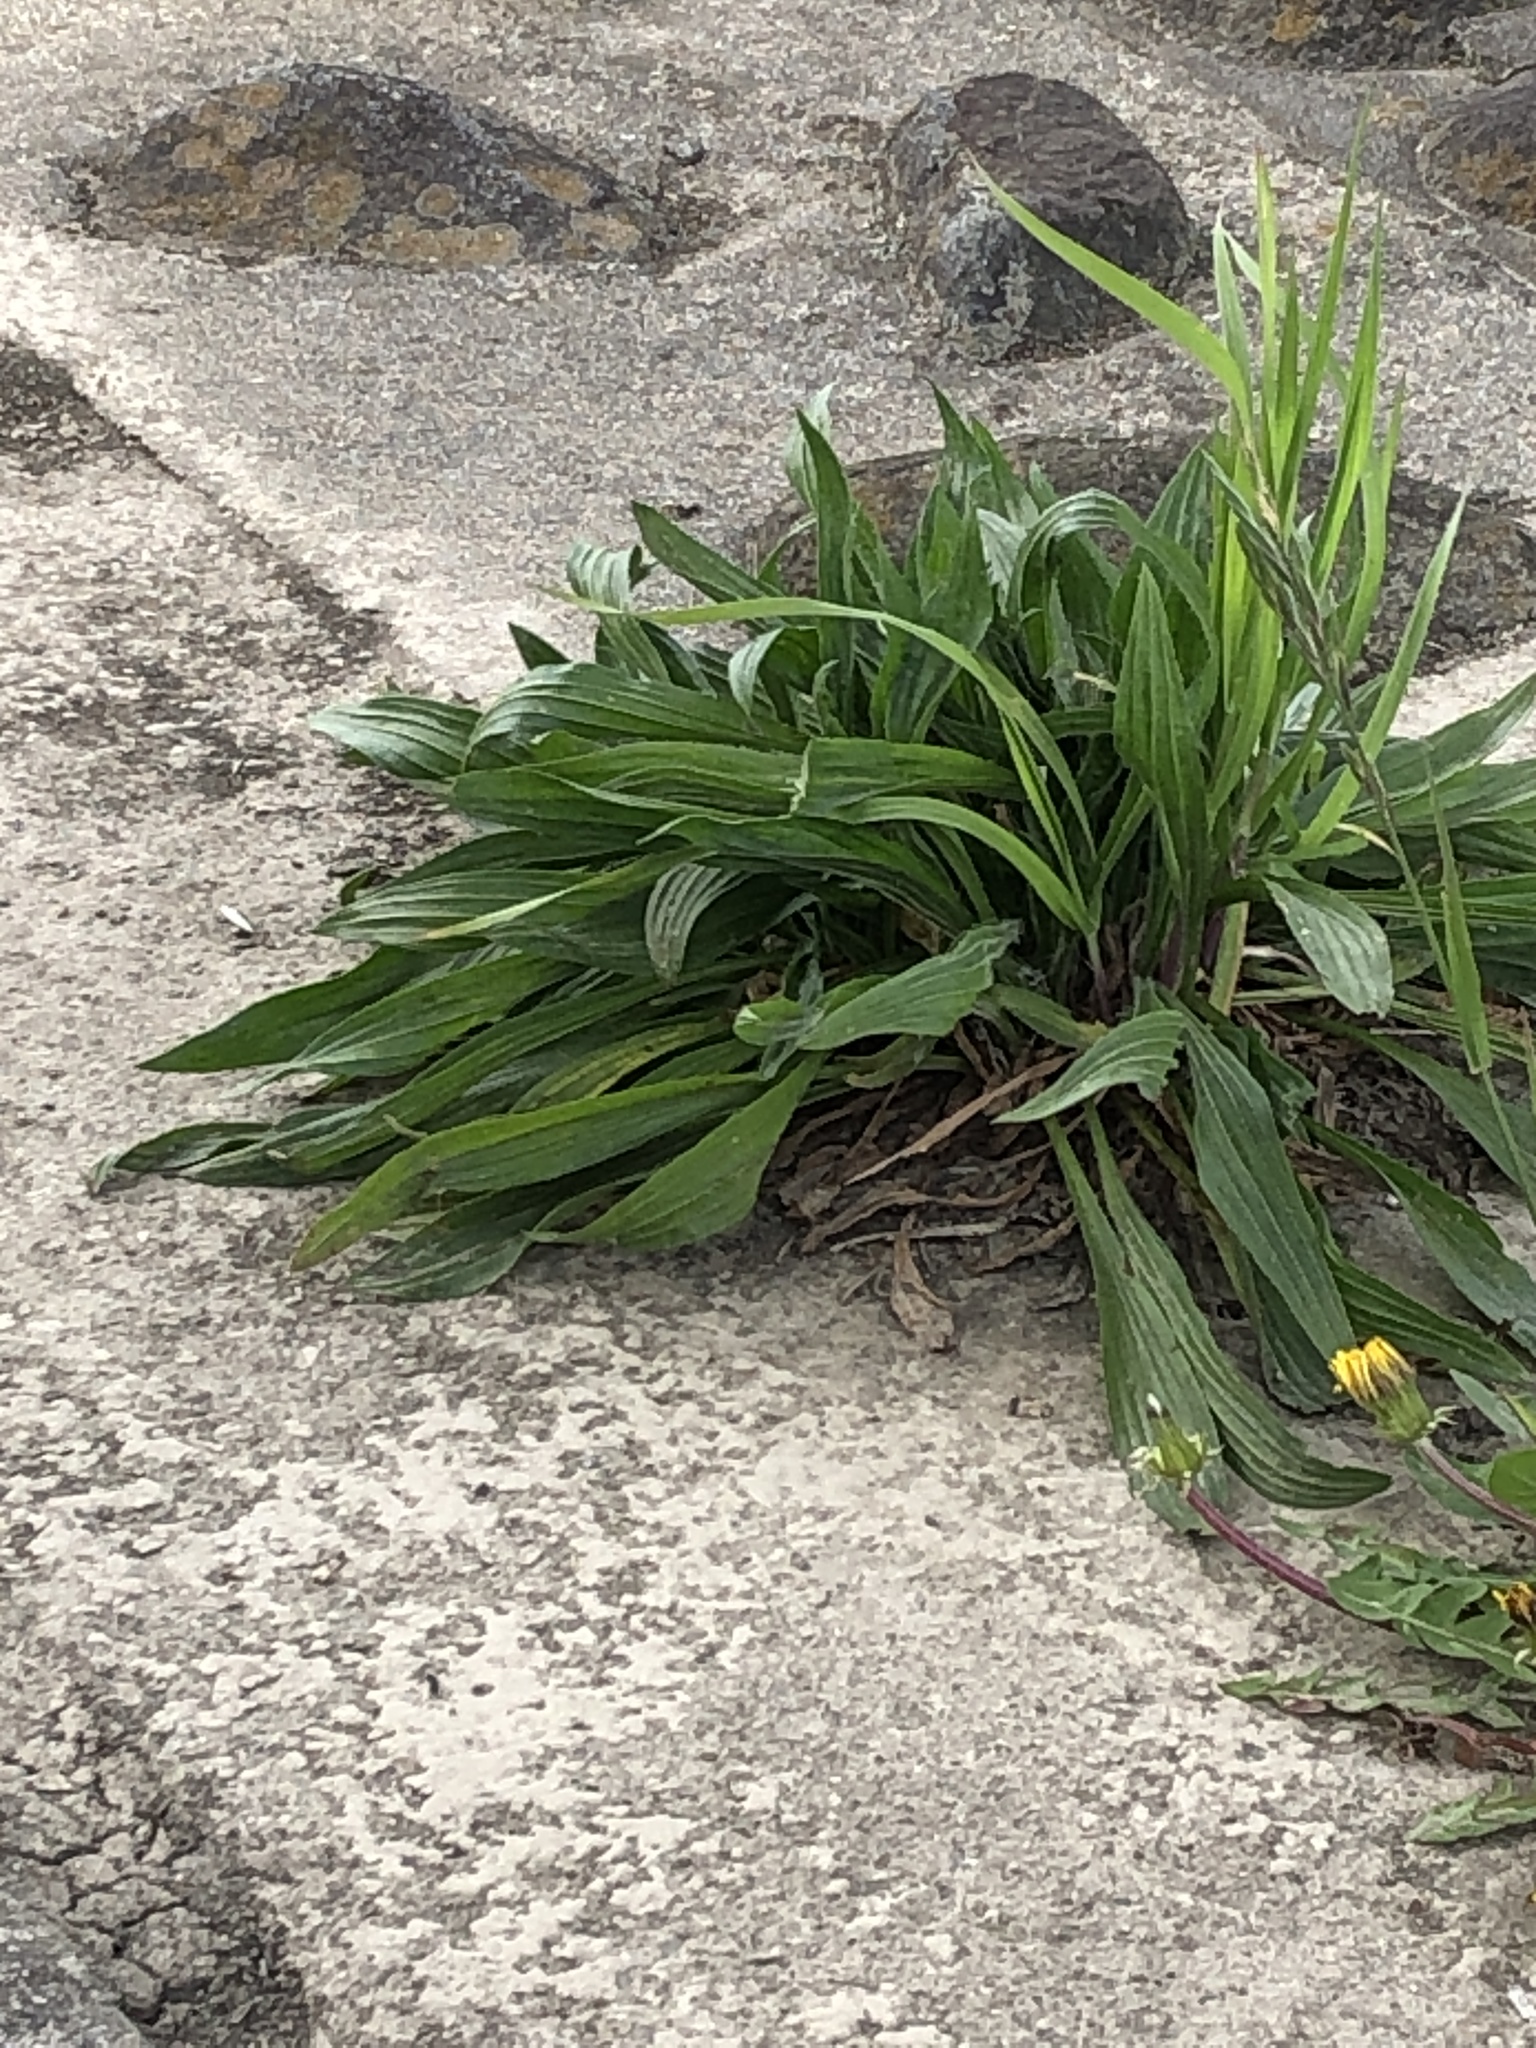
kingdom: Plantae
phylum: Tracheophyta
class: Magnoliopsida
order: Lamiales
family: Plantaginaceae
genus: Plantago
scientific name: Plantago lanceolata
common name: Ribwort plantain
